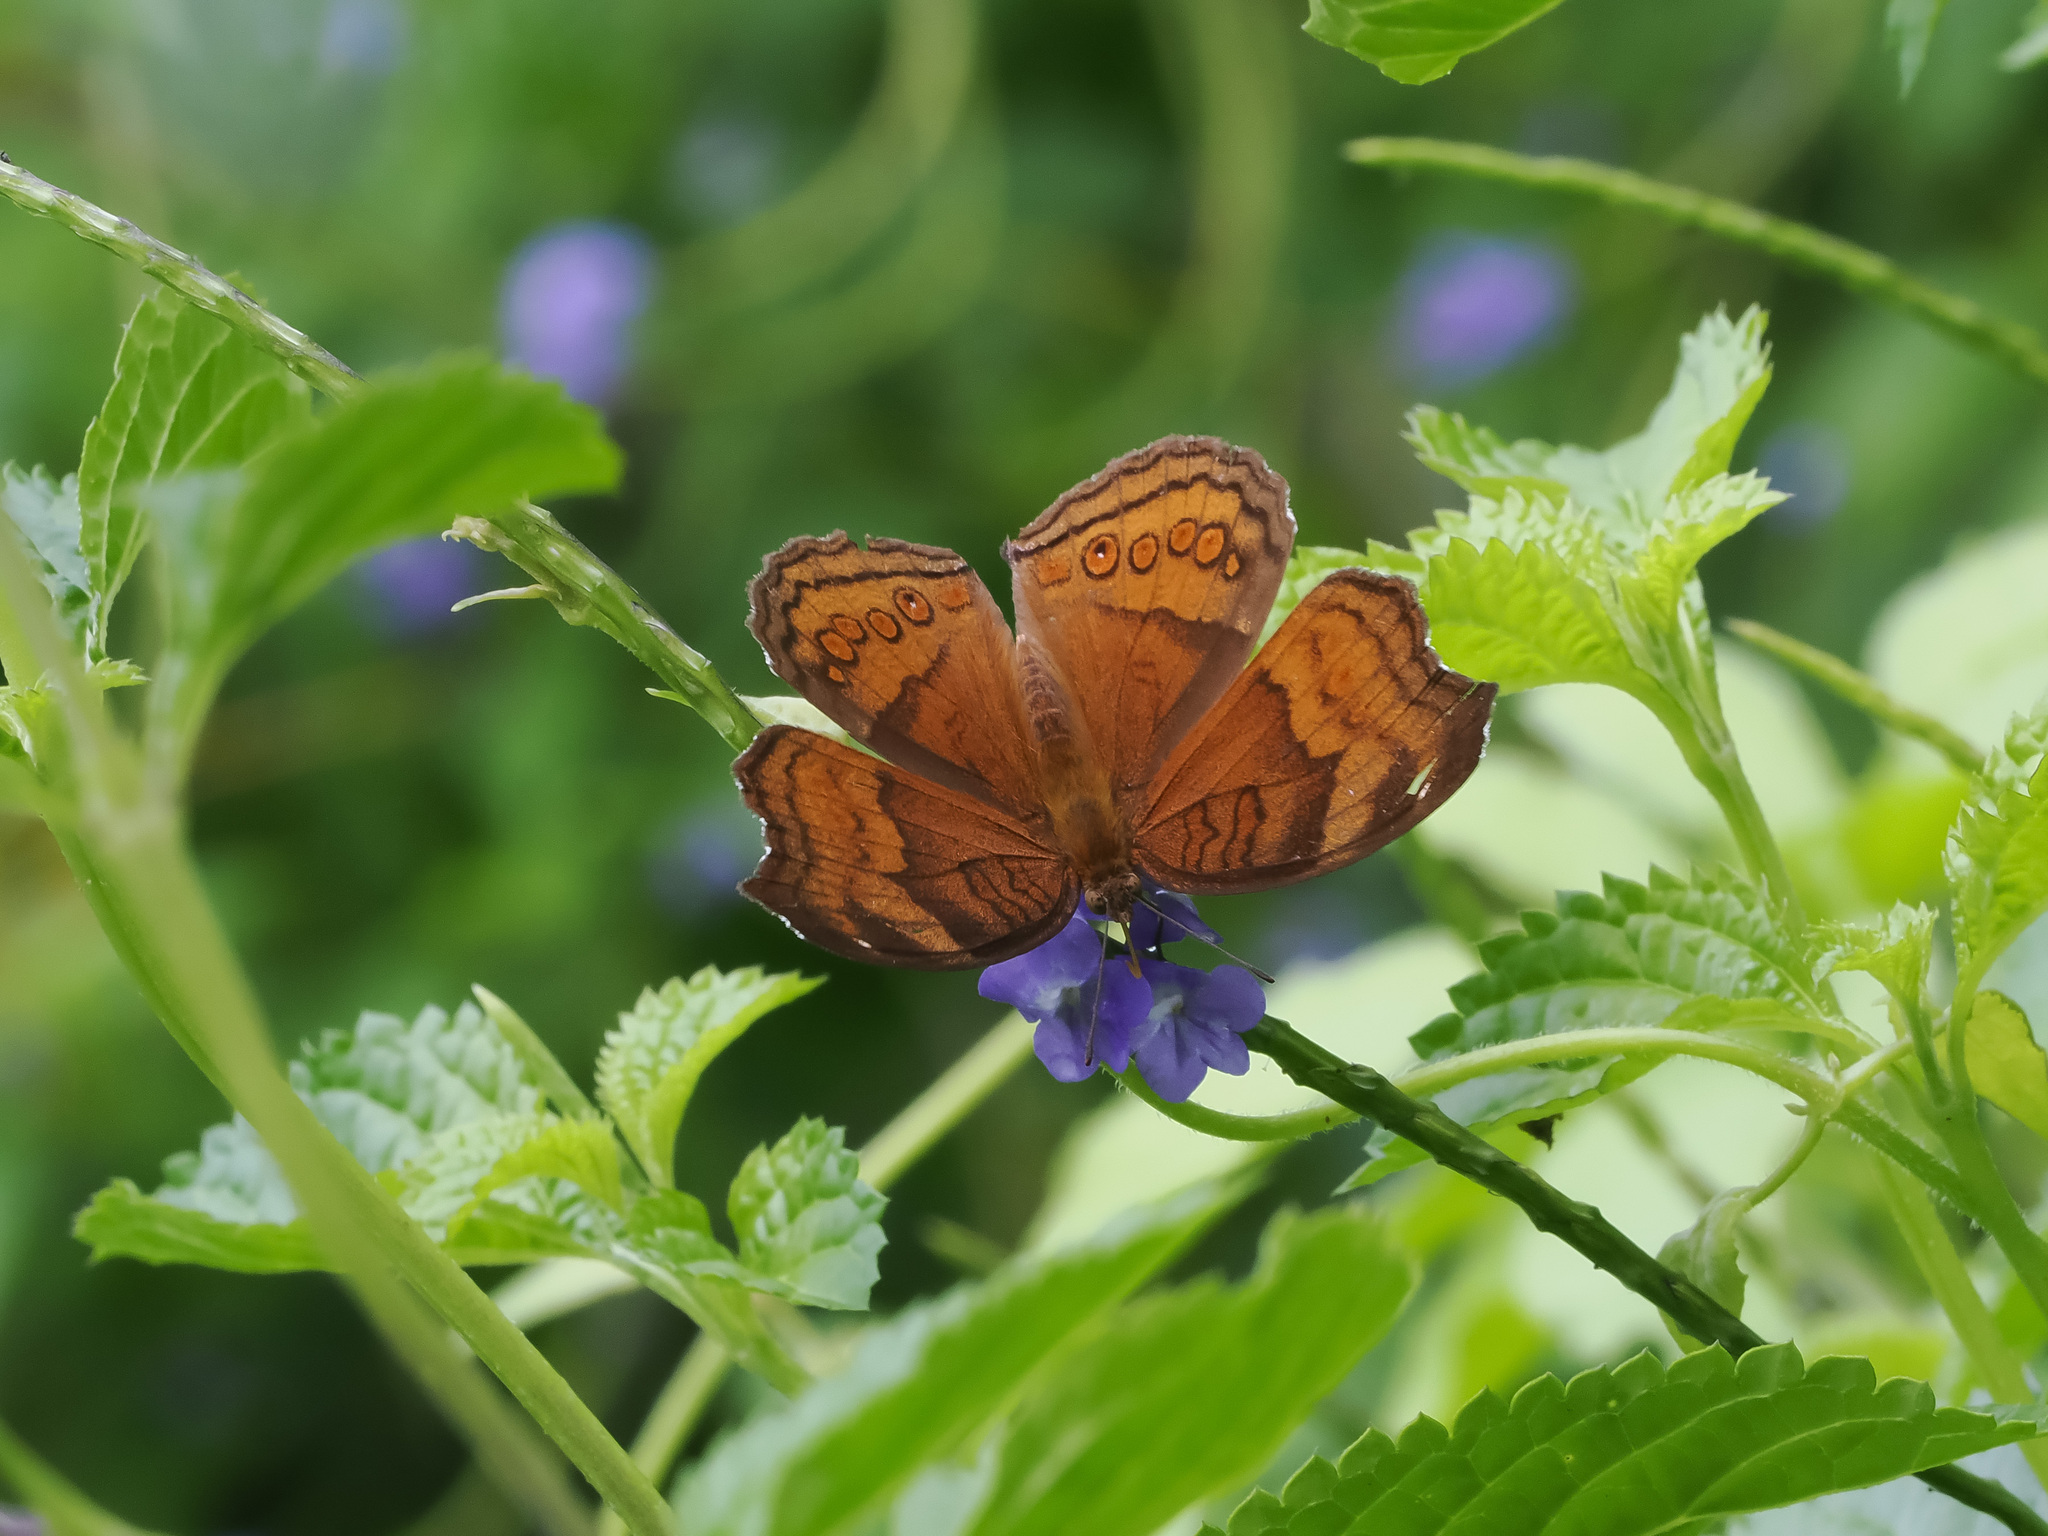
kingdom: Animalia
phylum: Arthropoda
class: Insecta
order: Lepidoptera
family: Nymphalidae
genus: Junonia
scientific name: Junonia hedonia
